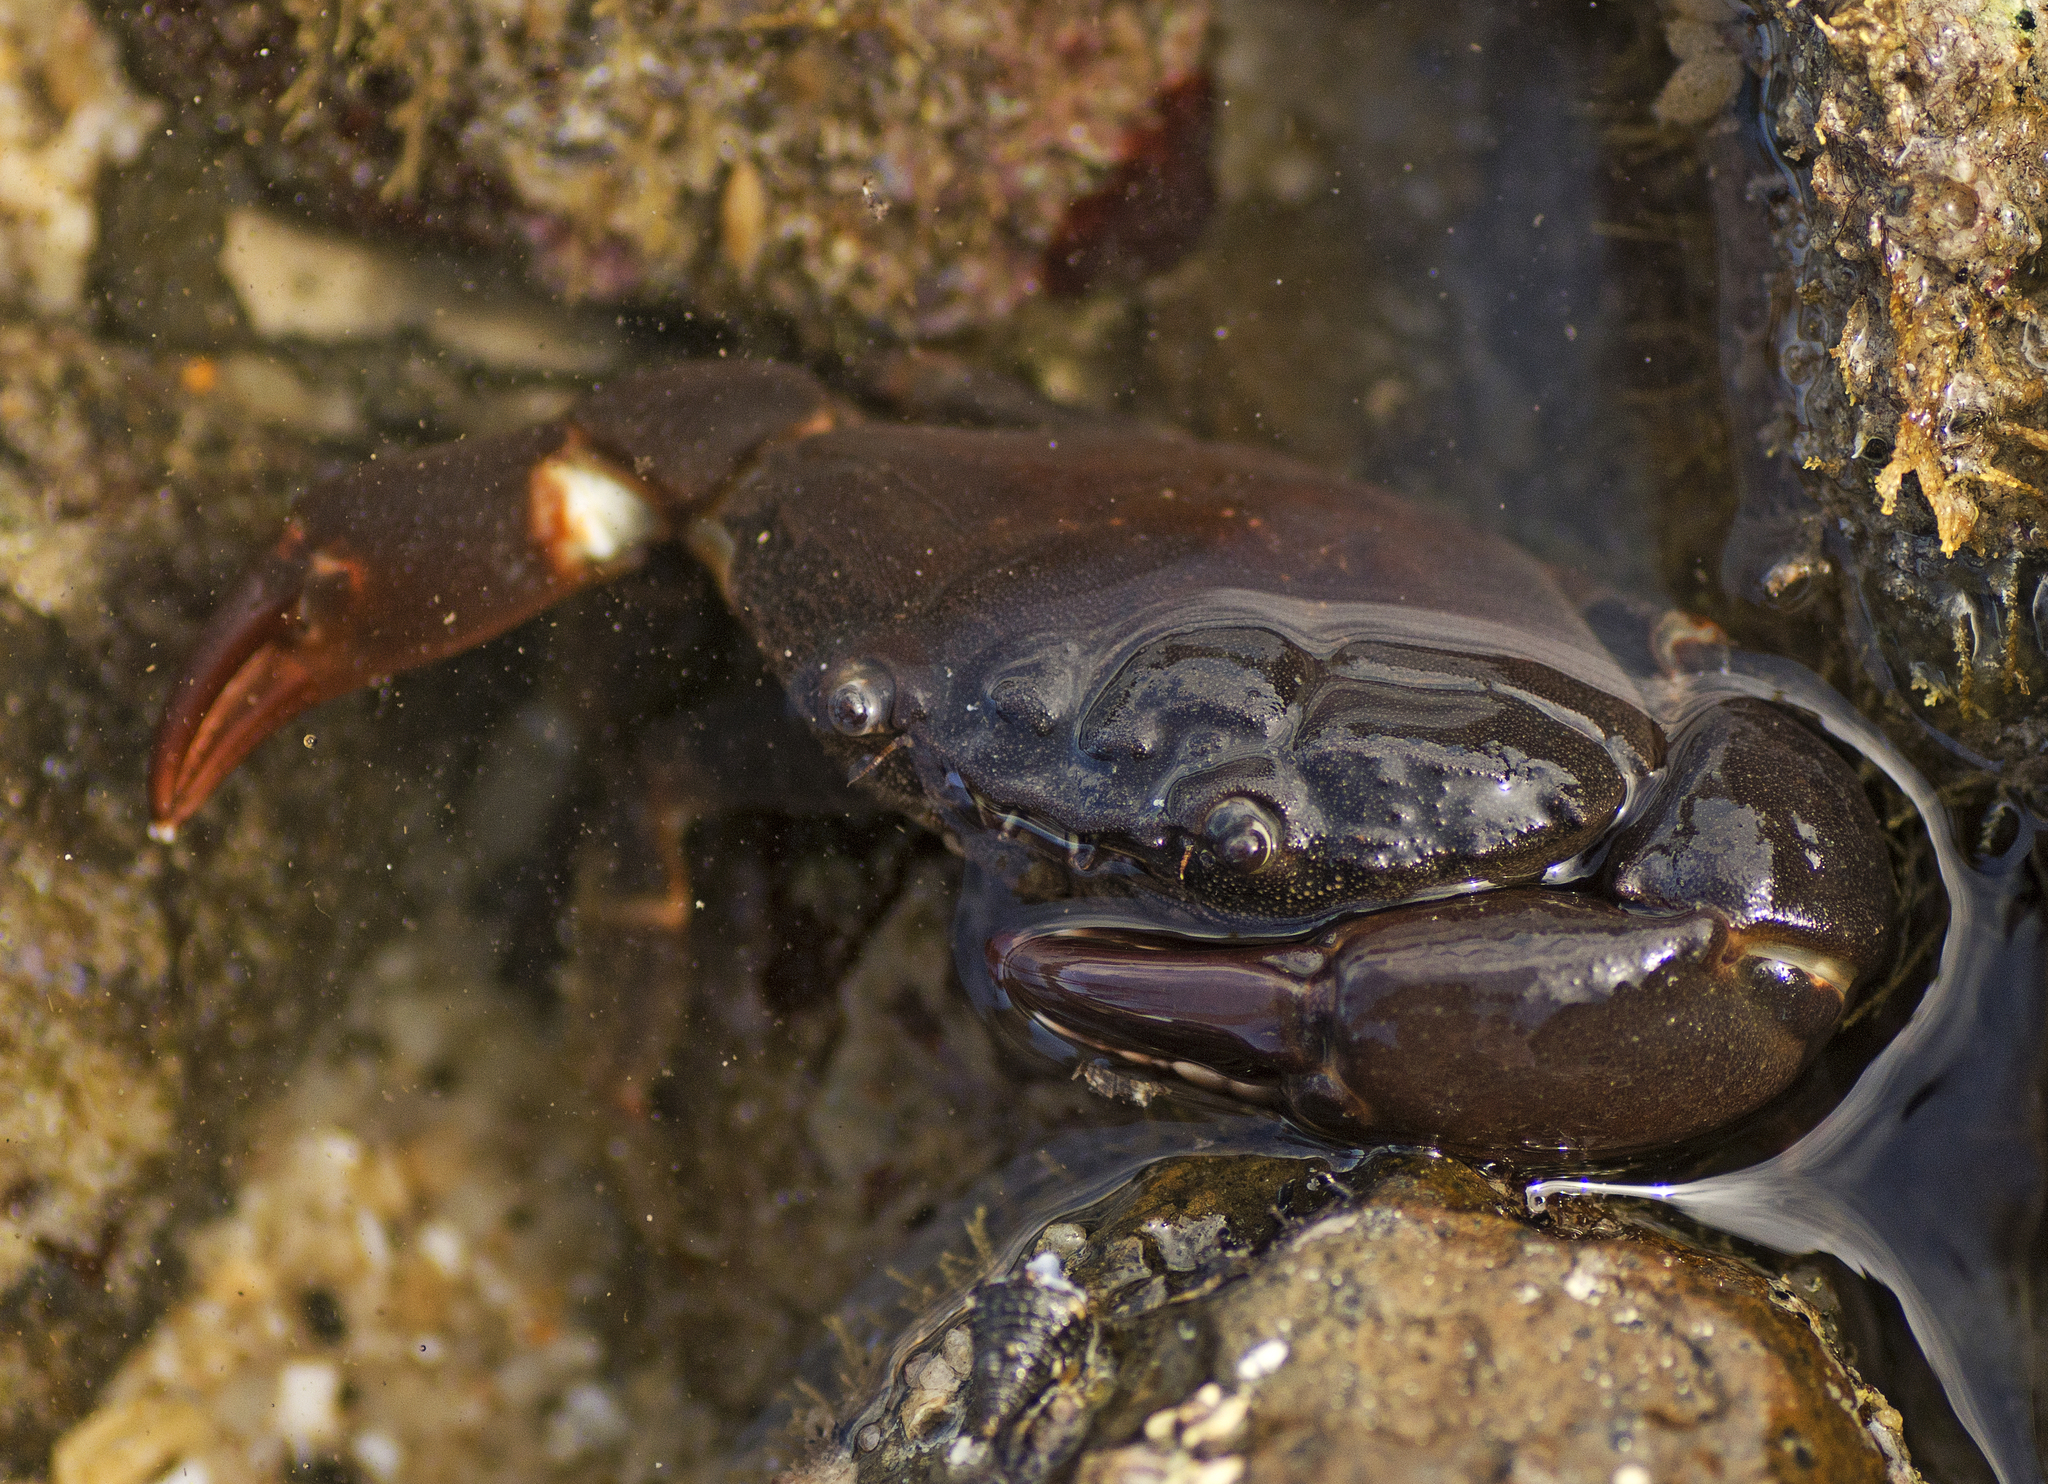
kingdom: Animalia
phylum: Arthropoda
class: Malacostraca
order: Decapoda
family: Oziidae
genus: Ozius
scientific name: Ozius truncatus
